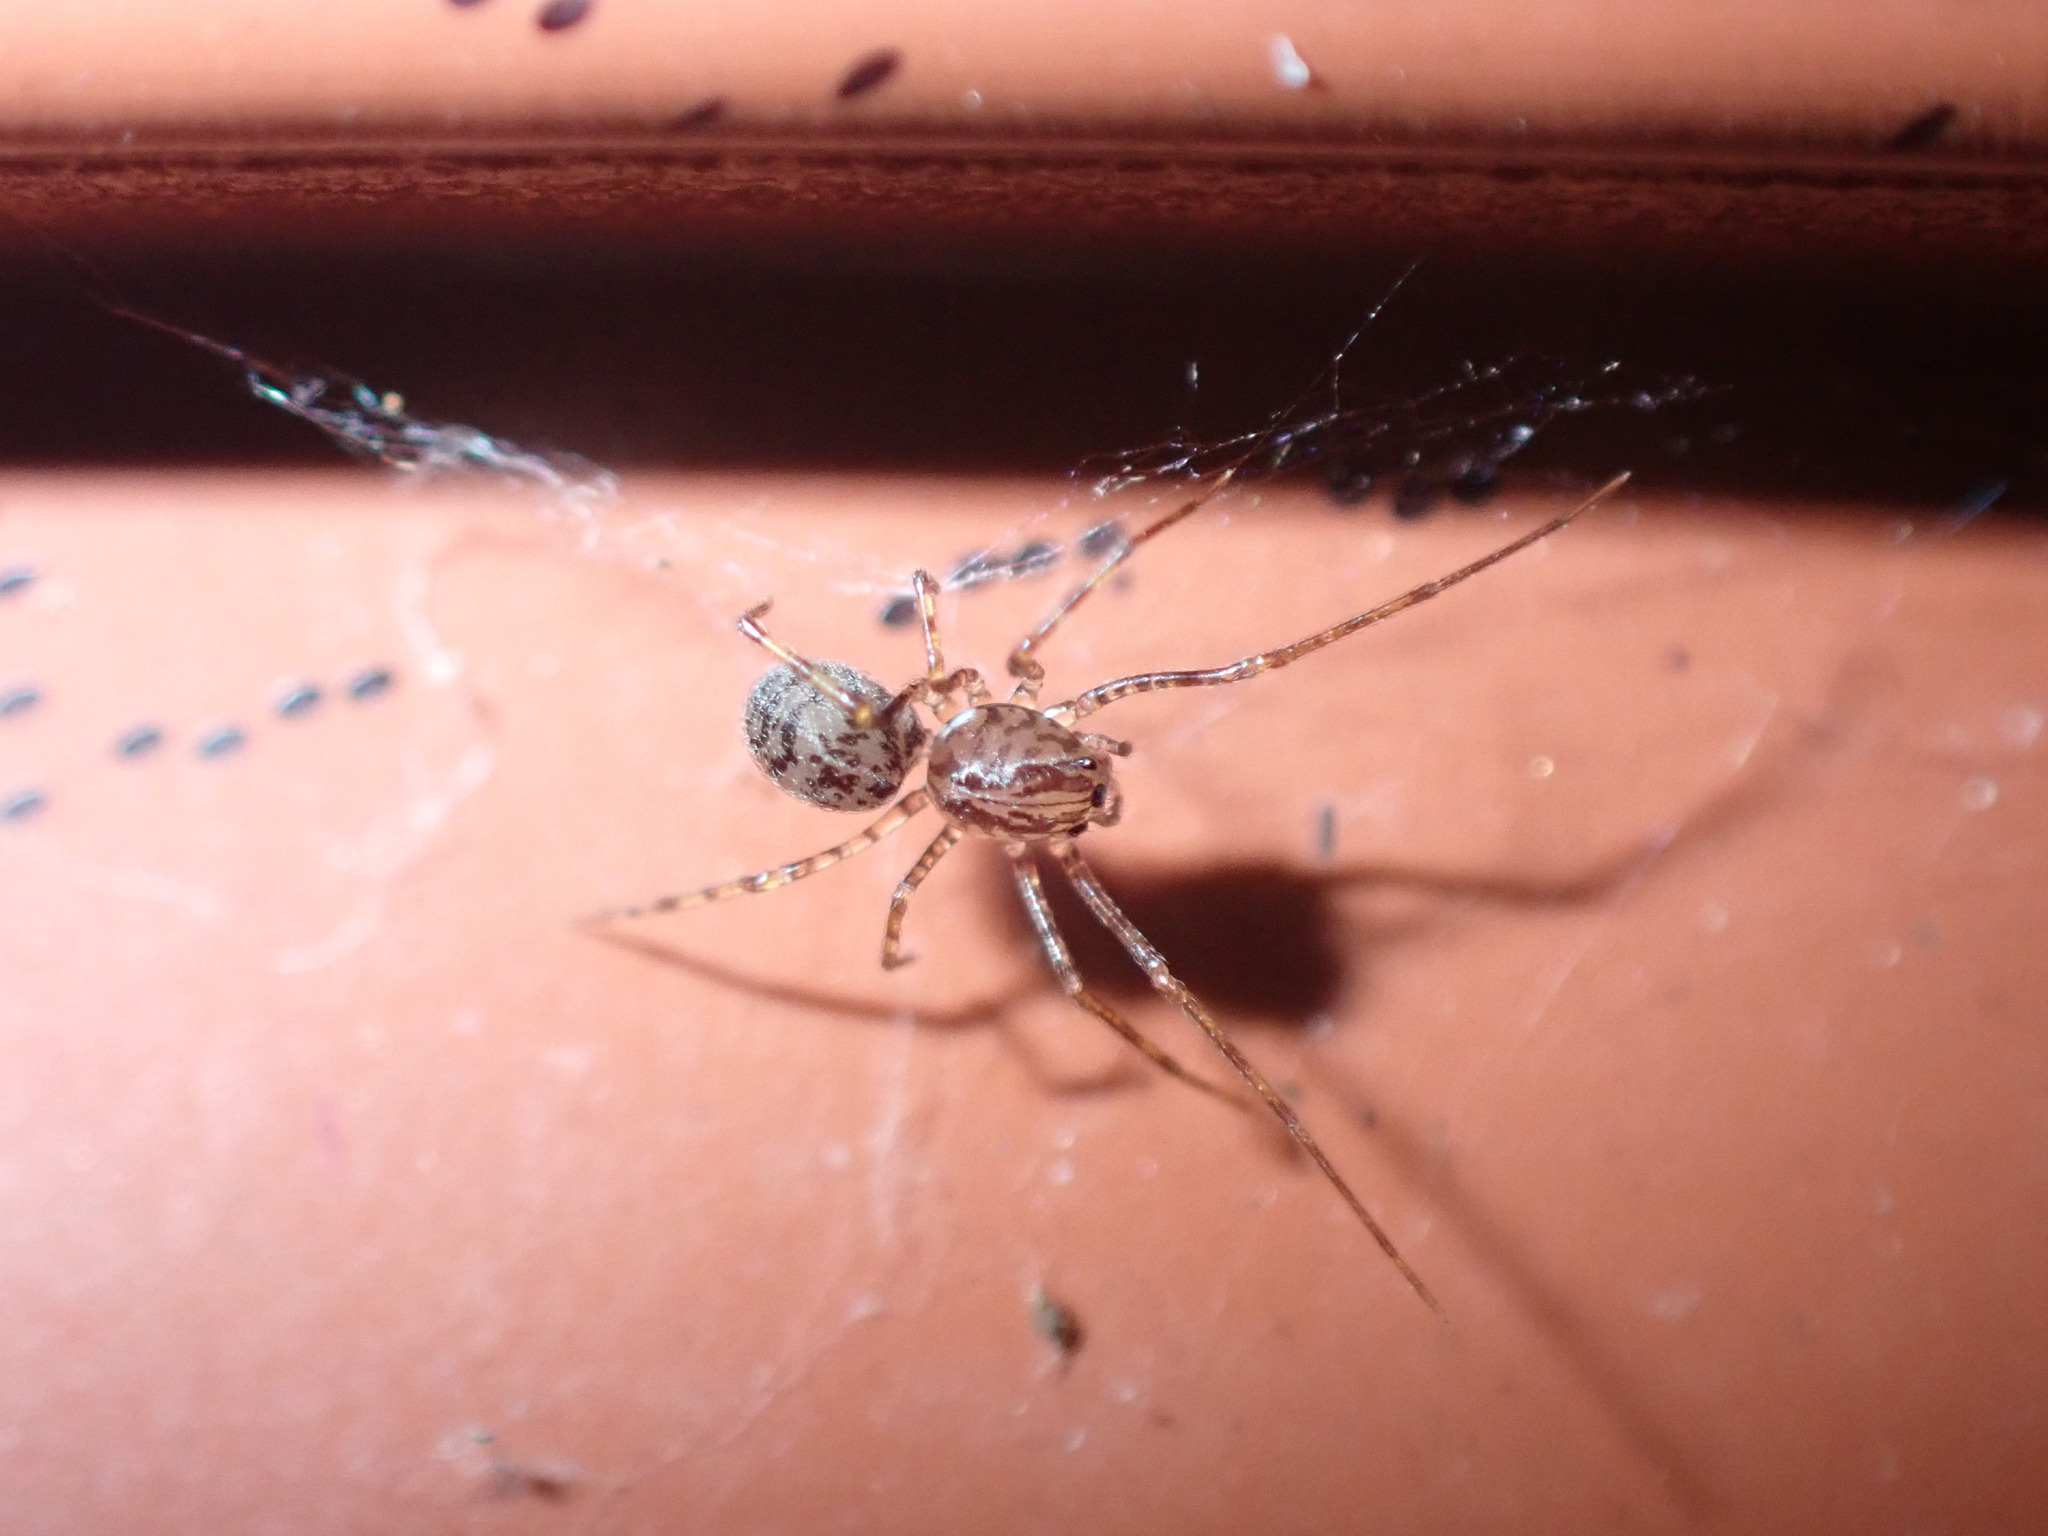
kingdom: Animalia
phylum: Arthropoda
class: Arachnida
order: Araneae
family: Scytodidae
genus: Scytodes
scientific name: Scytodes fusca
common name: Spitting spiders
